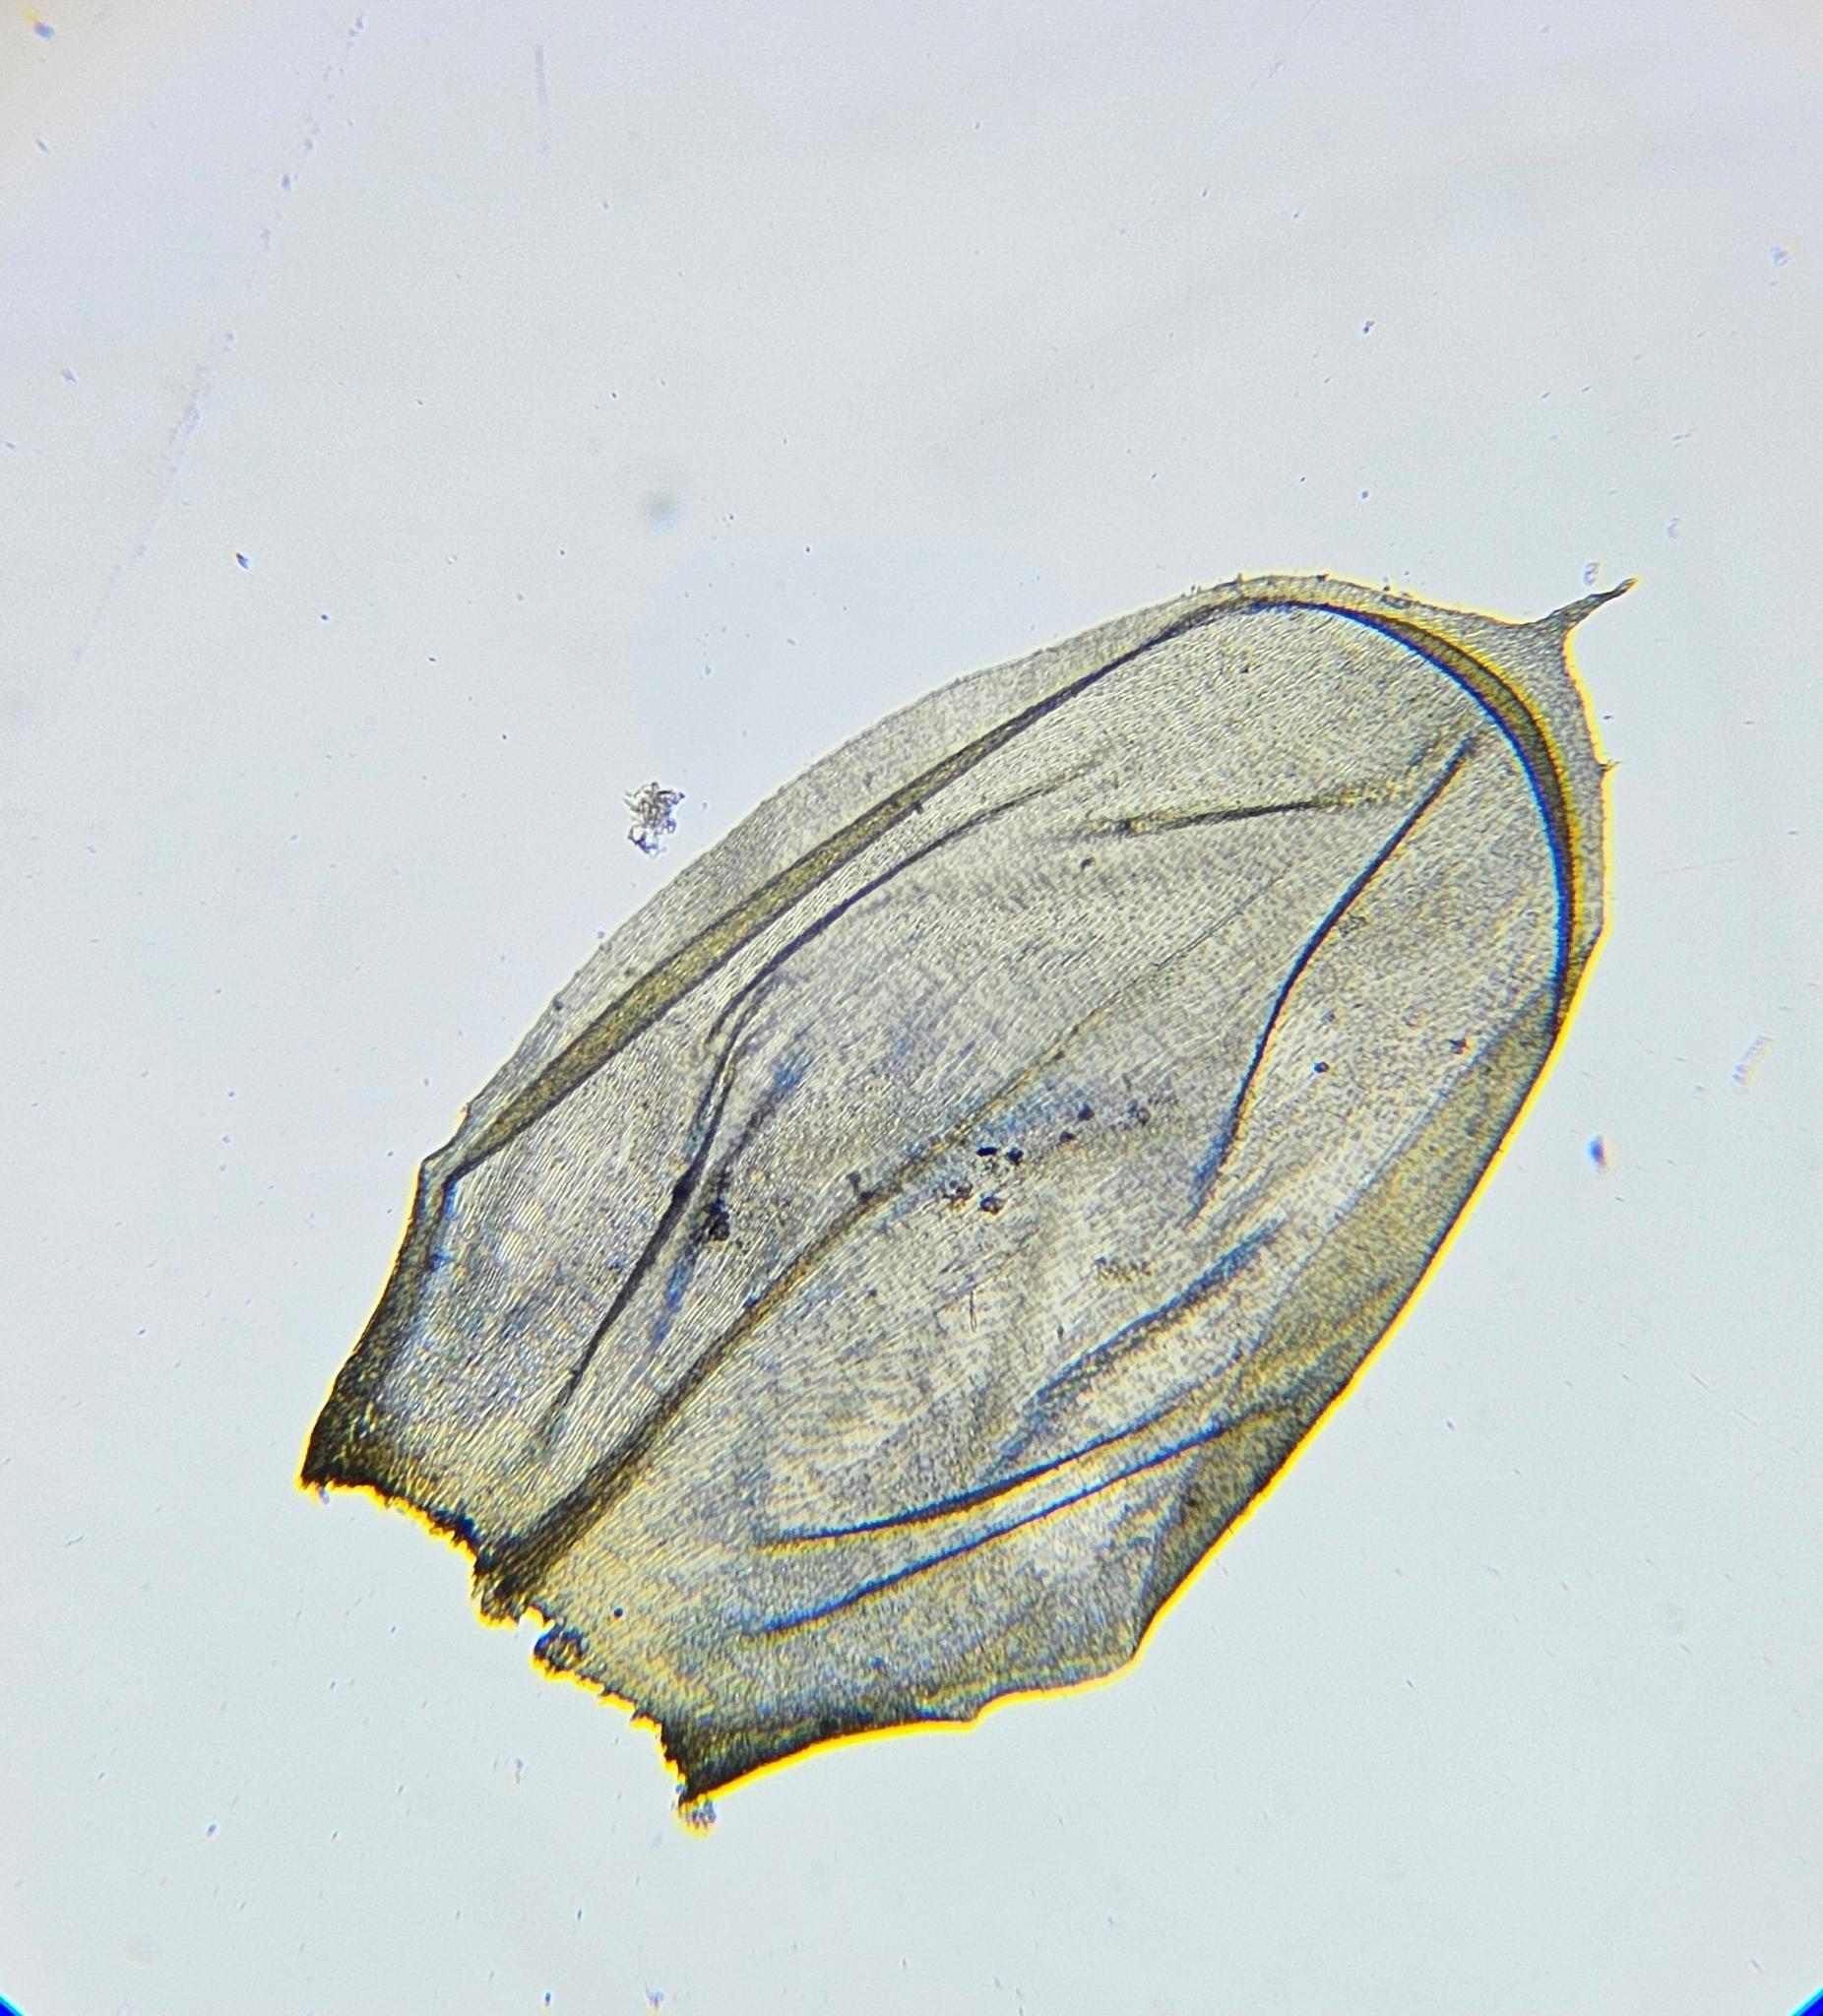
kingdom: Plantae
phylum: Bryophyta
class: Bryopsida
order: Hypnales
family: Brachytheciaceae
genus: Pseudoscleropodium
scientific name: Pseudoscleropodium purum
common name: Neat feather-moss
